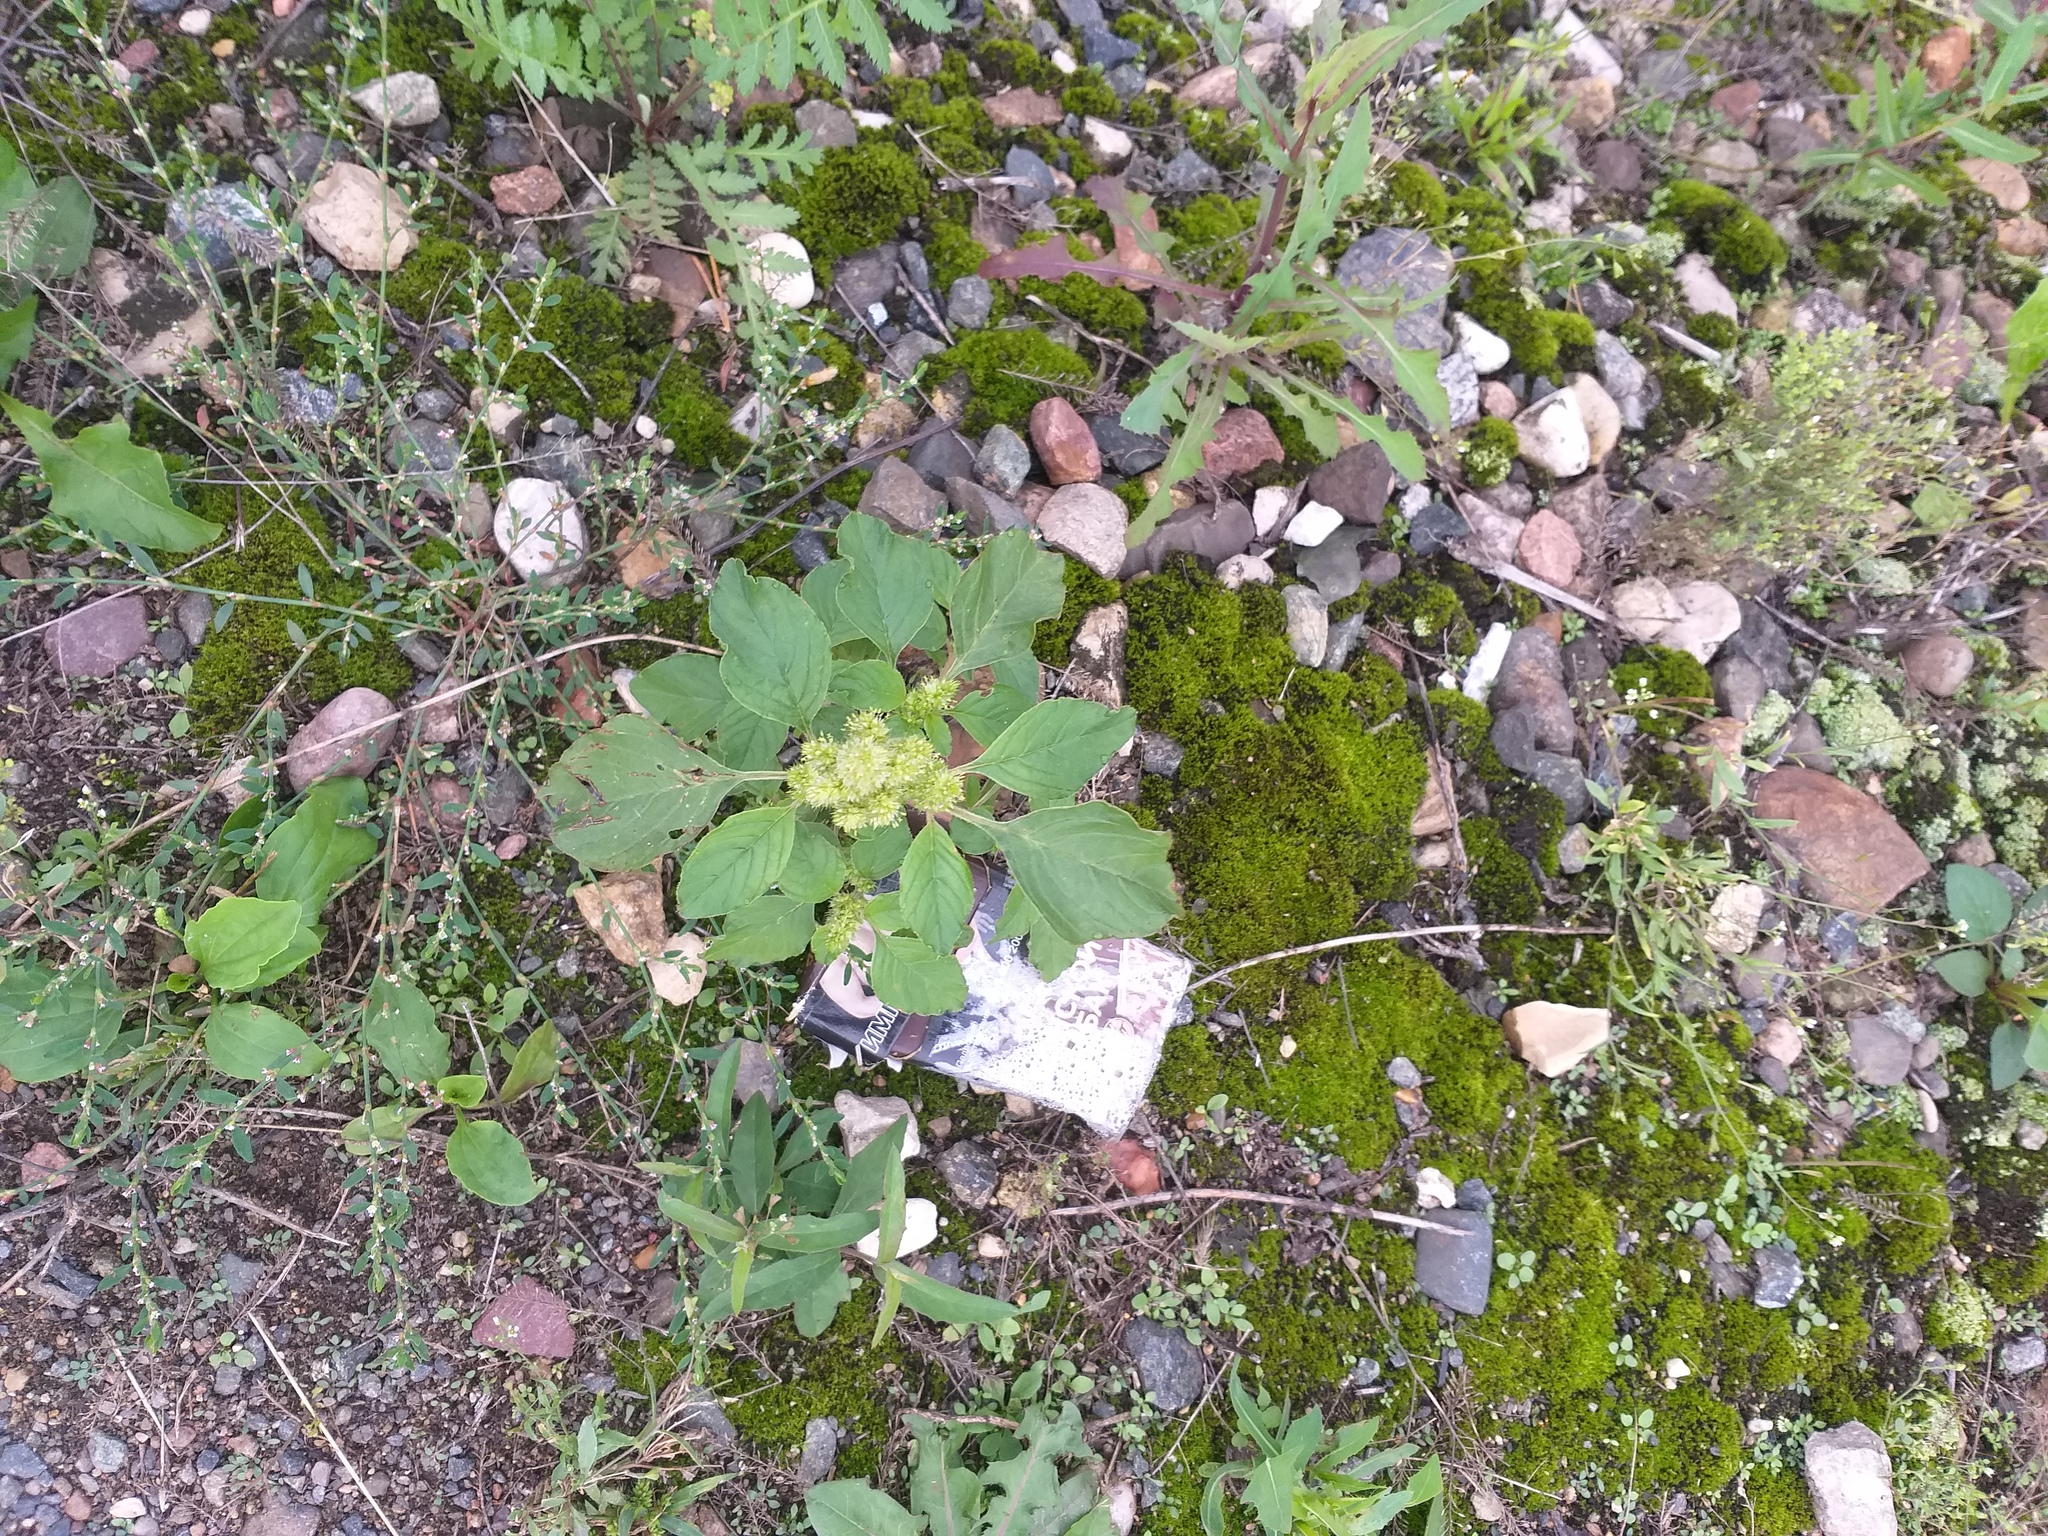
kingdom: Plantae
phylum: Tracheophyta
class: Magnoliopsida
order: Caryophyllales
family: Amaranthaceae
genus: Amaranthus
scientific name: Amaranthus retroflexus
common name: Redroot amaranth
